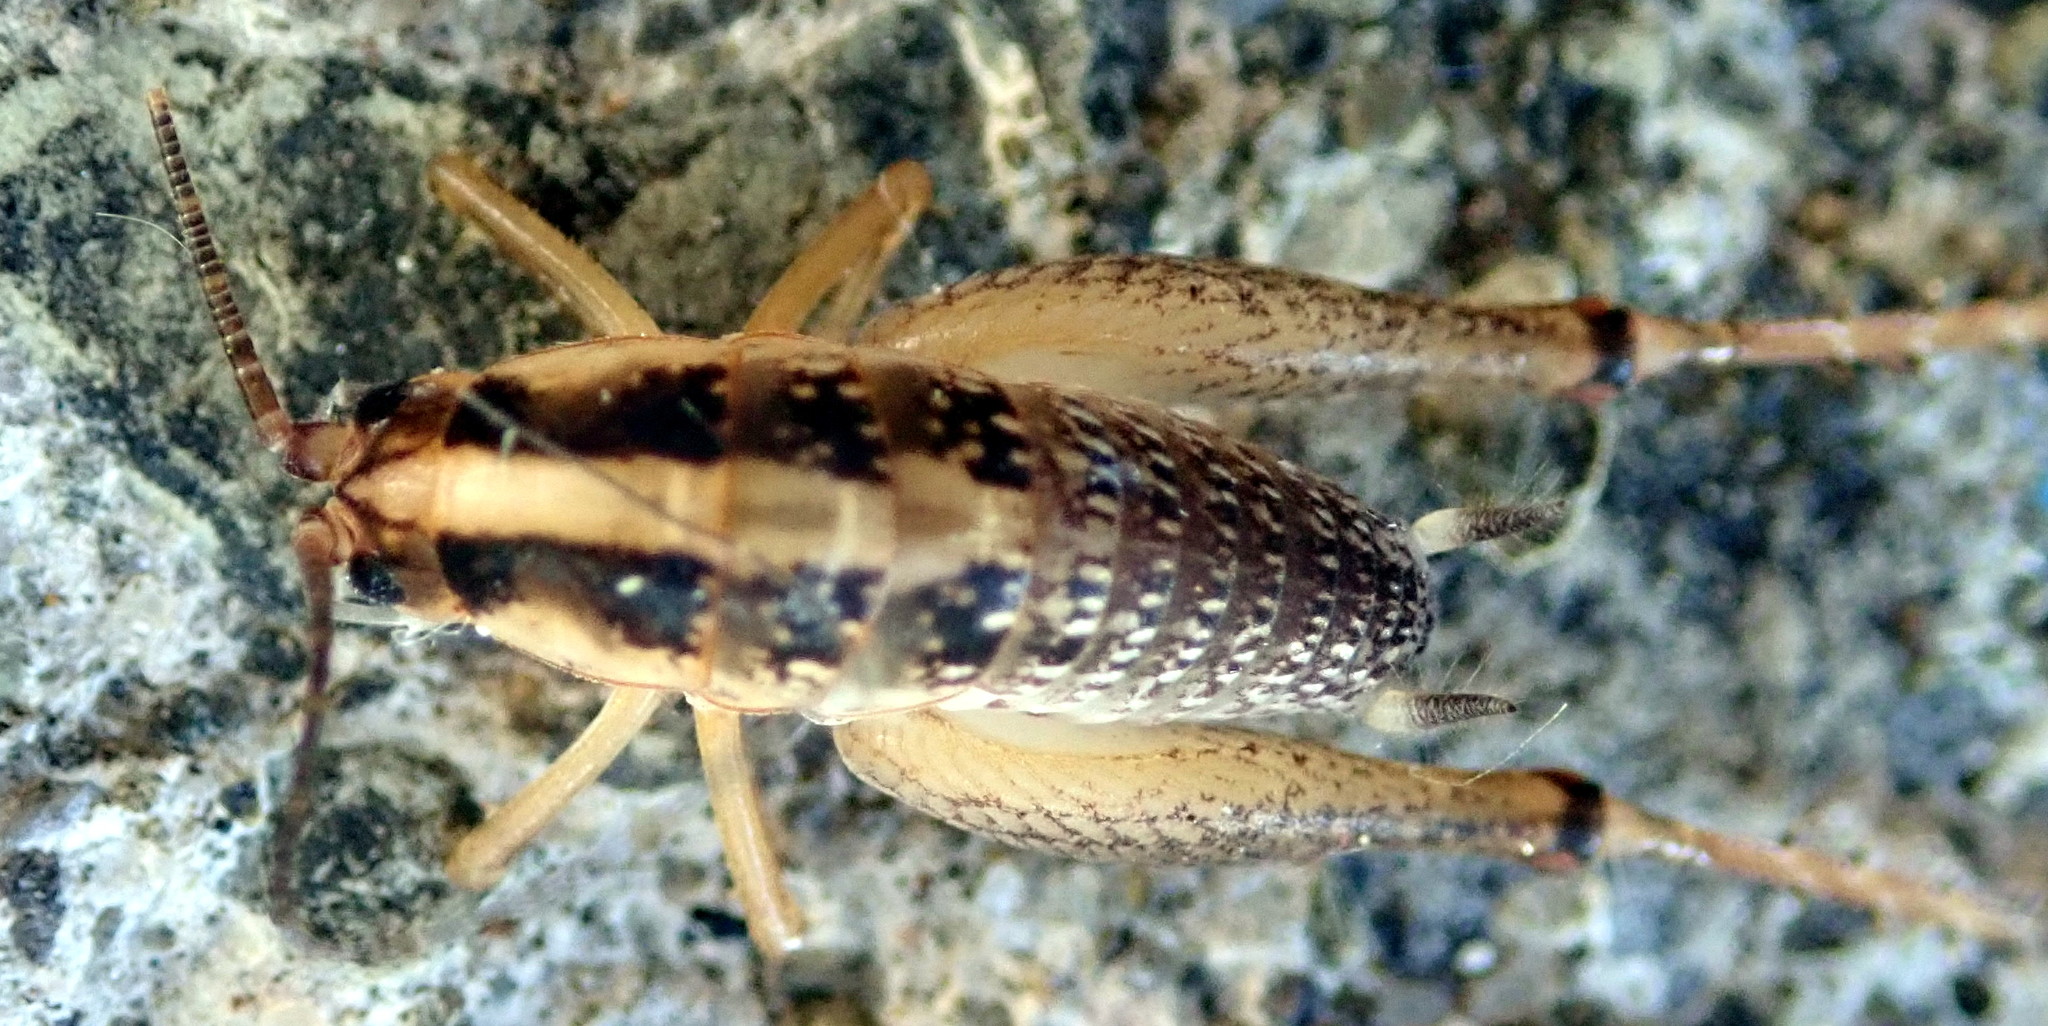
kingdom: Animalia
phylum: Arthropoda
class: Insecta
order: Orthoptera
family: Rhaphidophoridae
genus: Ceuthophilus
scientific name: Ceuthophilus
